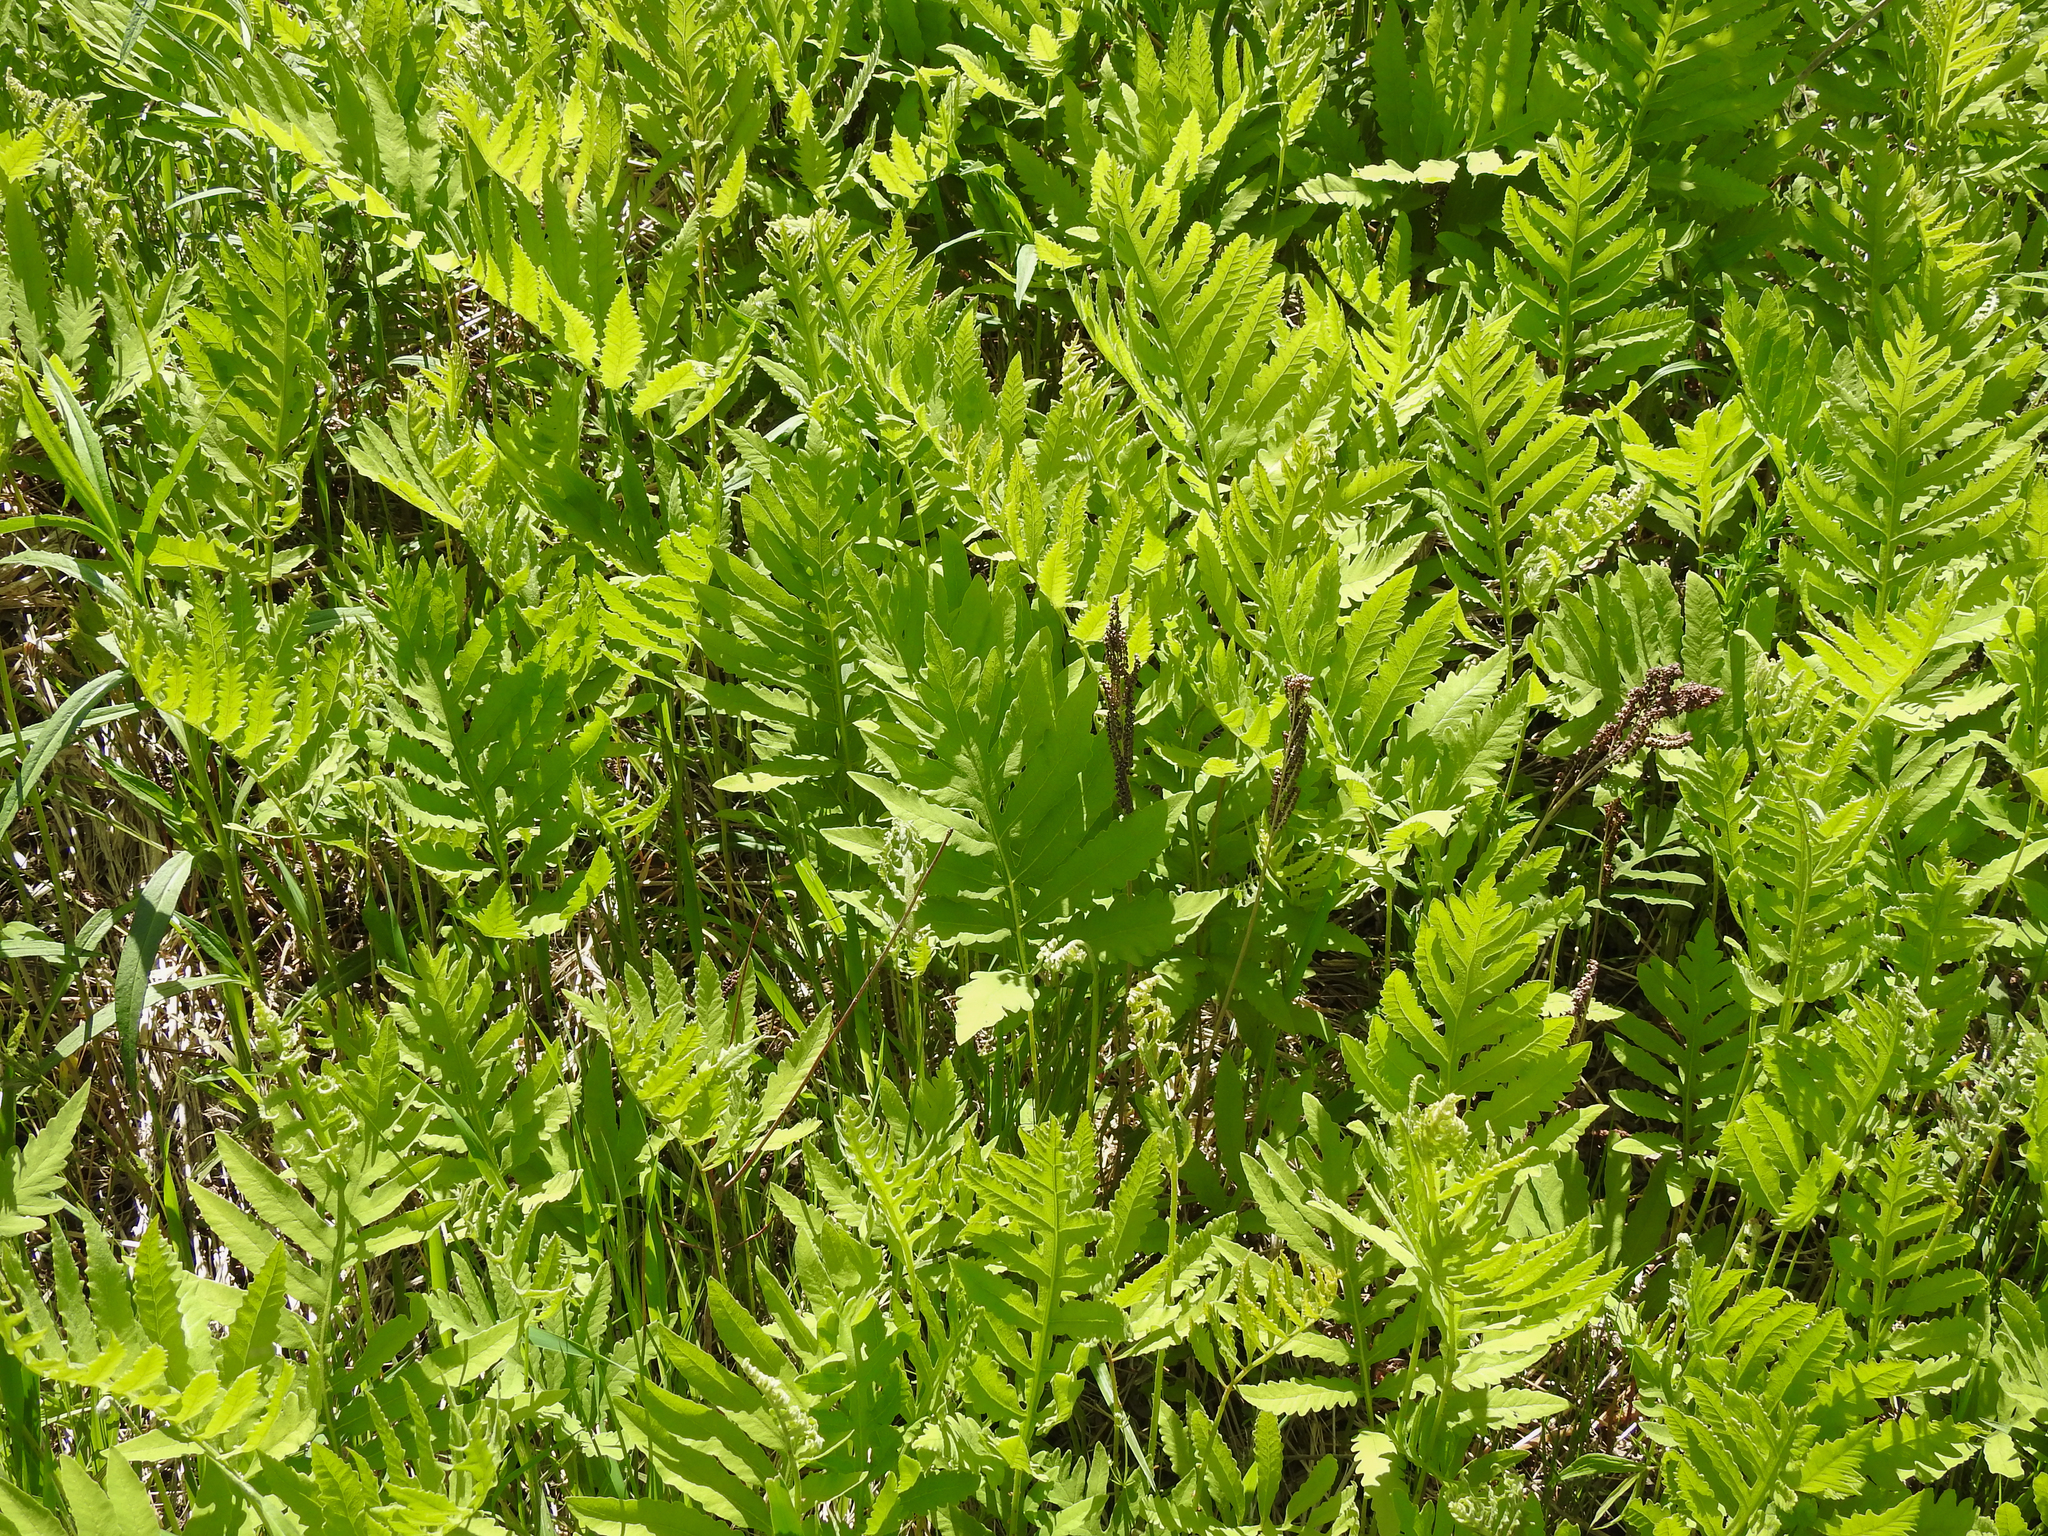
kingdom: Plantae
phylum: Tracheophyta
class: Polypodiopsida
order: Polypodiales
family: Onocleaceae
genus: Onoclea
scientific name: Onoclea sensibilis
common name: Sensitive fern
